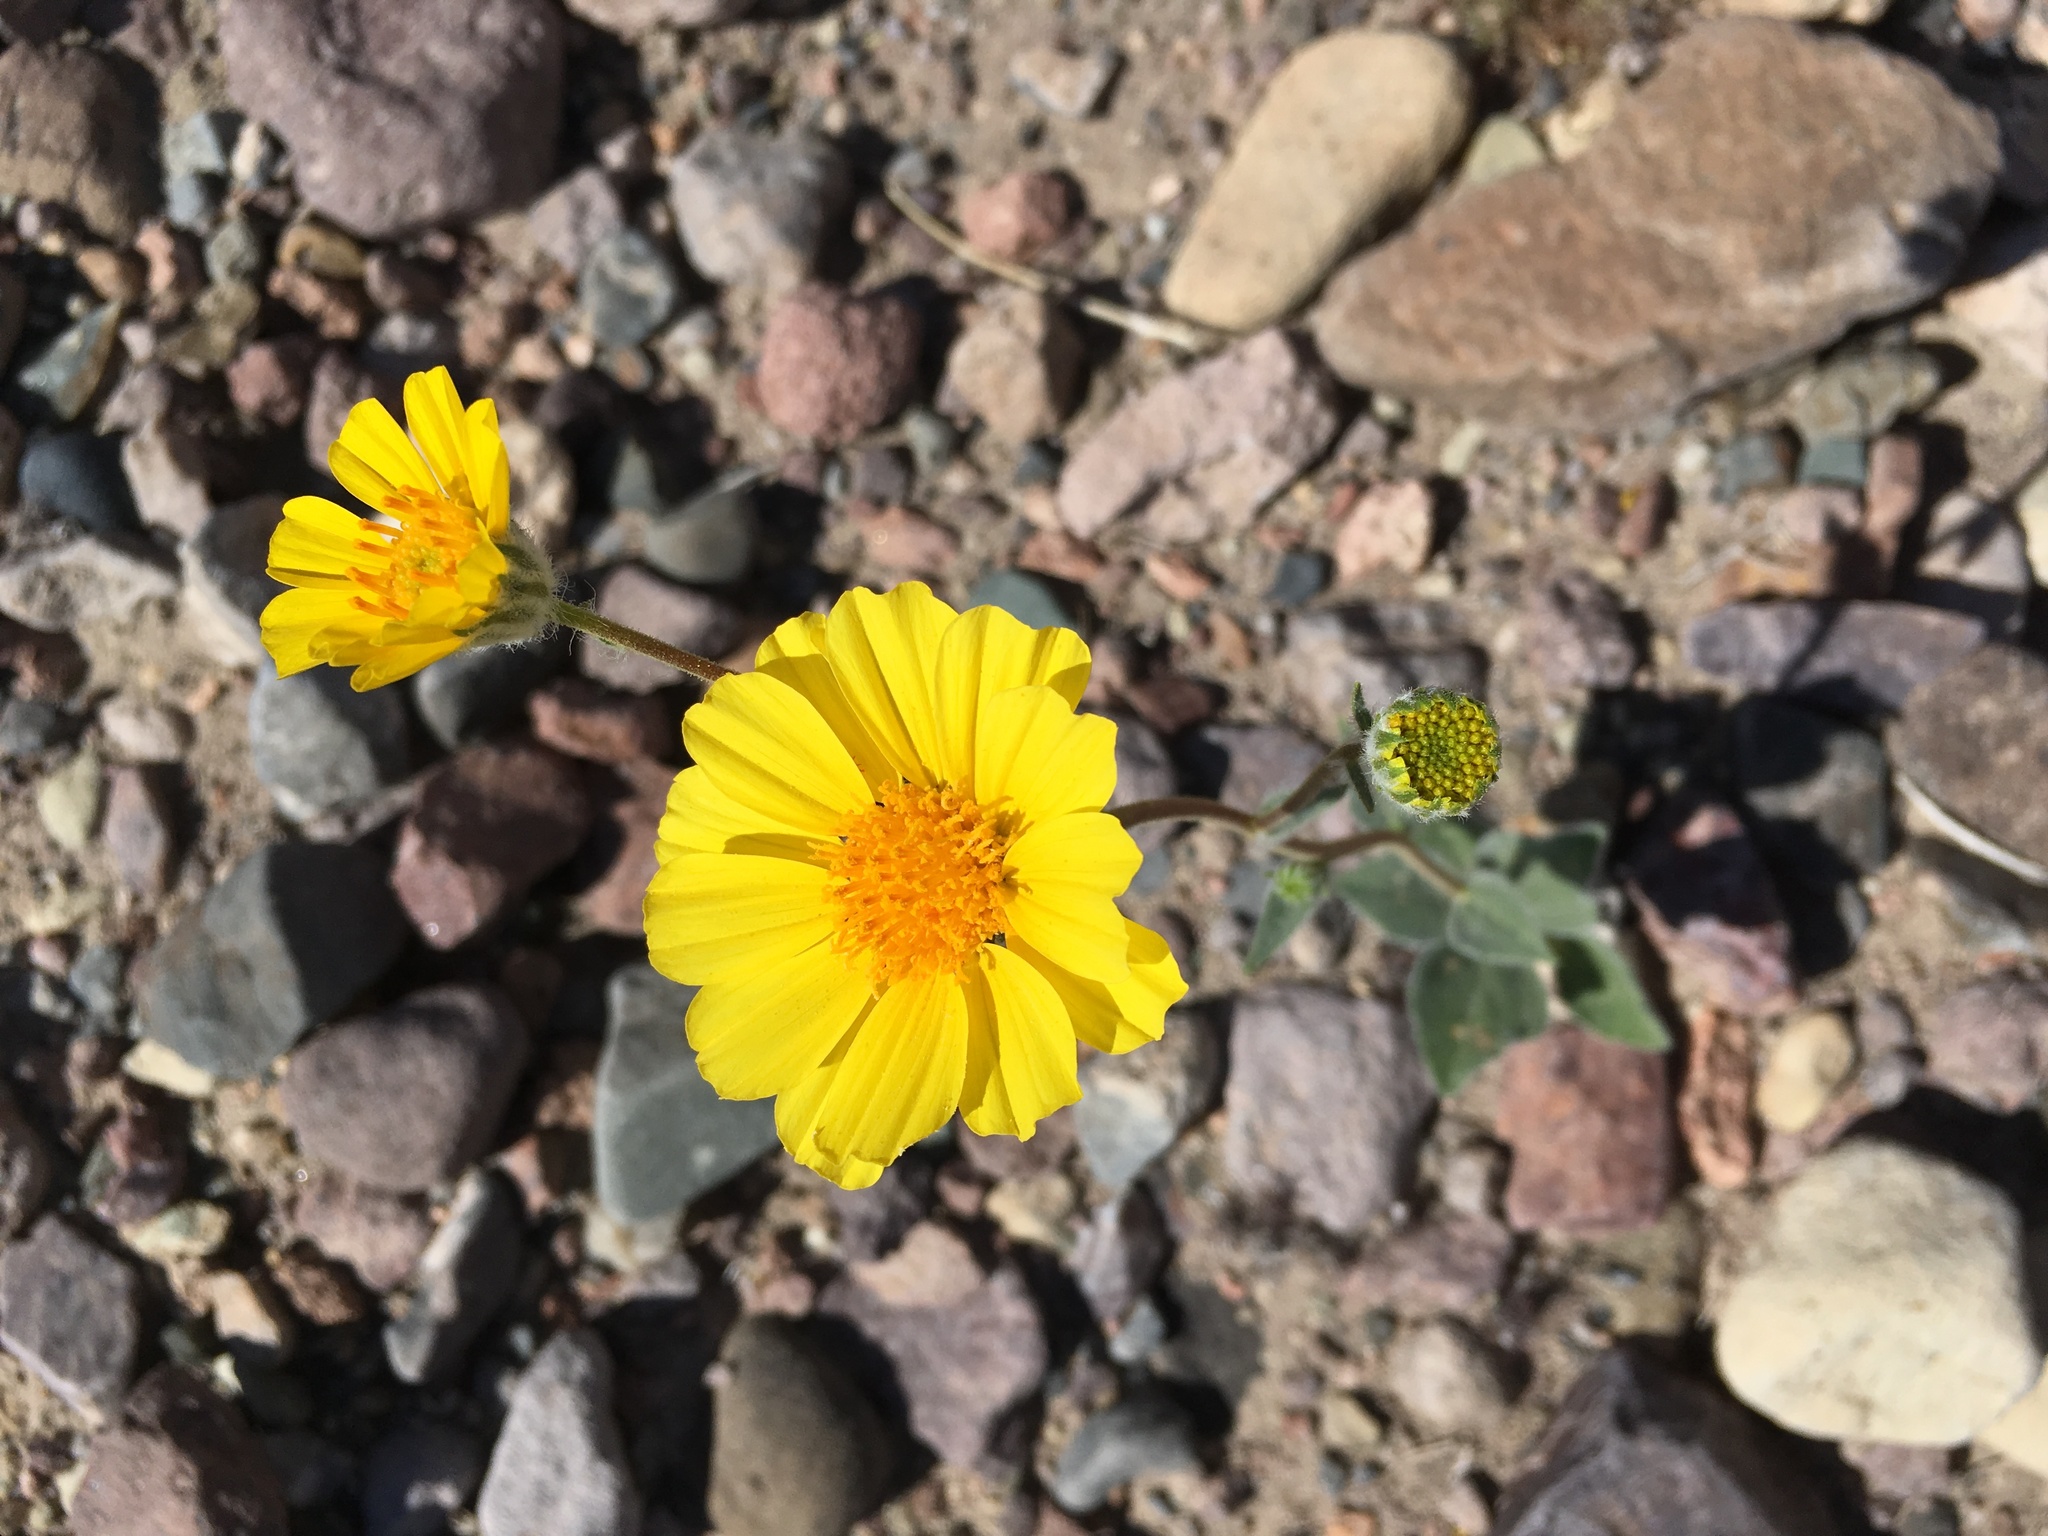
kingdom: Plantae
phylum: Tracheophyta
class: Magnoliopsida
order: Asterales
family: Asteraceae
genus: Geraea
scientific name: Geraea canescens
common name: Desert-gold
